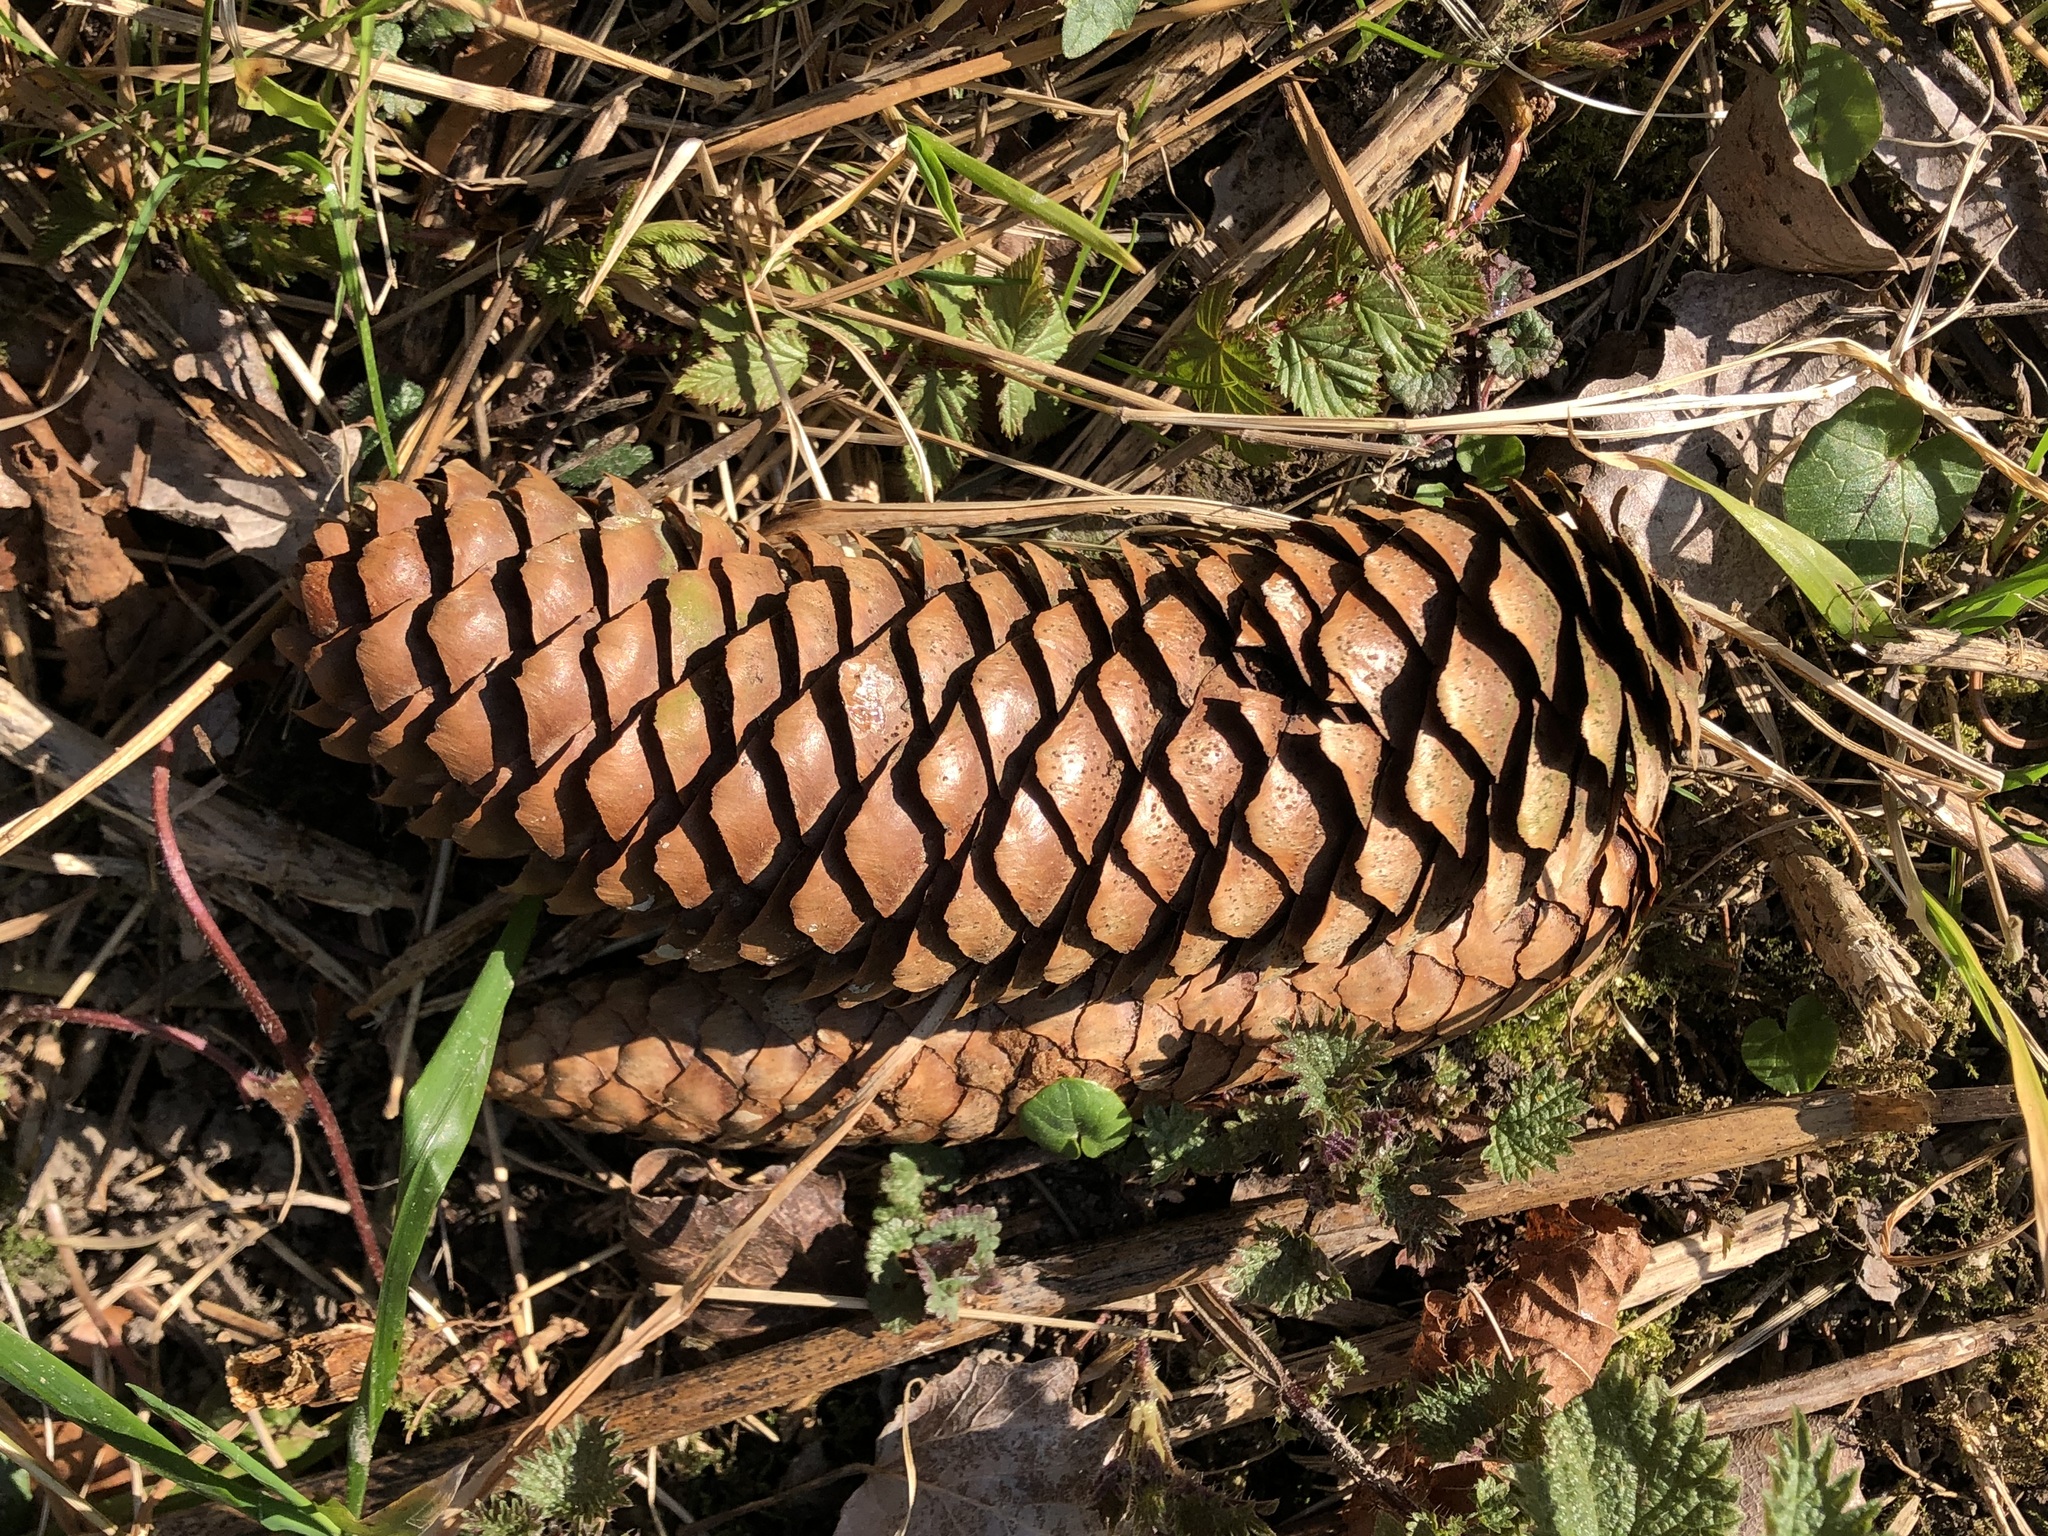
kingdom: Plantae
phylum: Tracheophyta
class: Pinopsida
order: Pinales
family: Pinaceae
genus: Picea
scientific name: Picea abies
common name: Norway spruce
